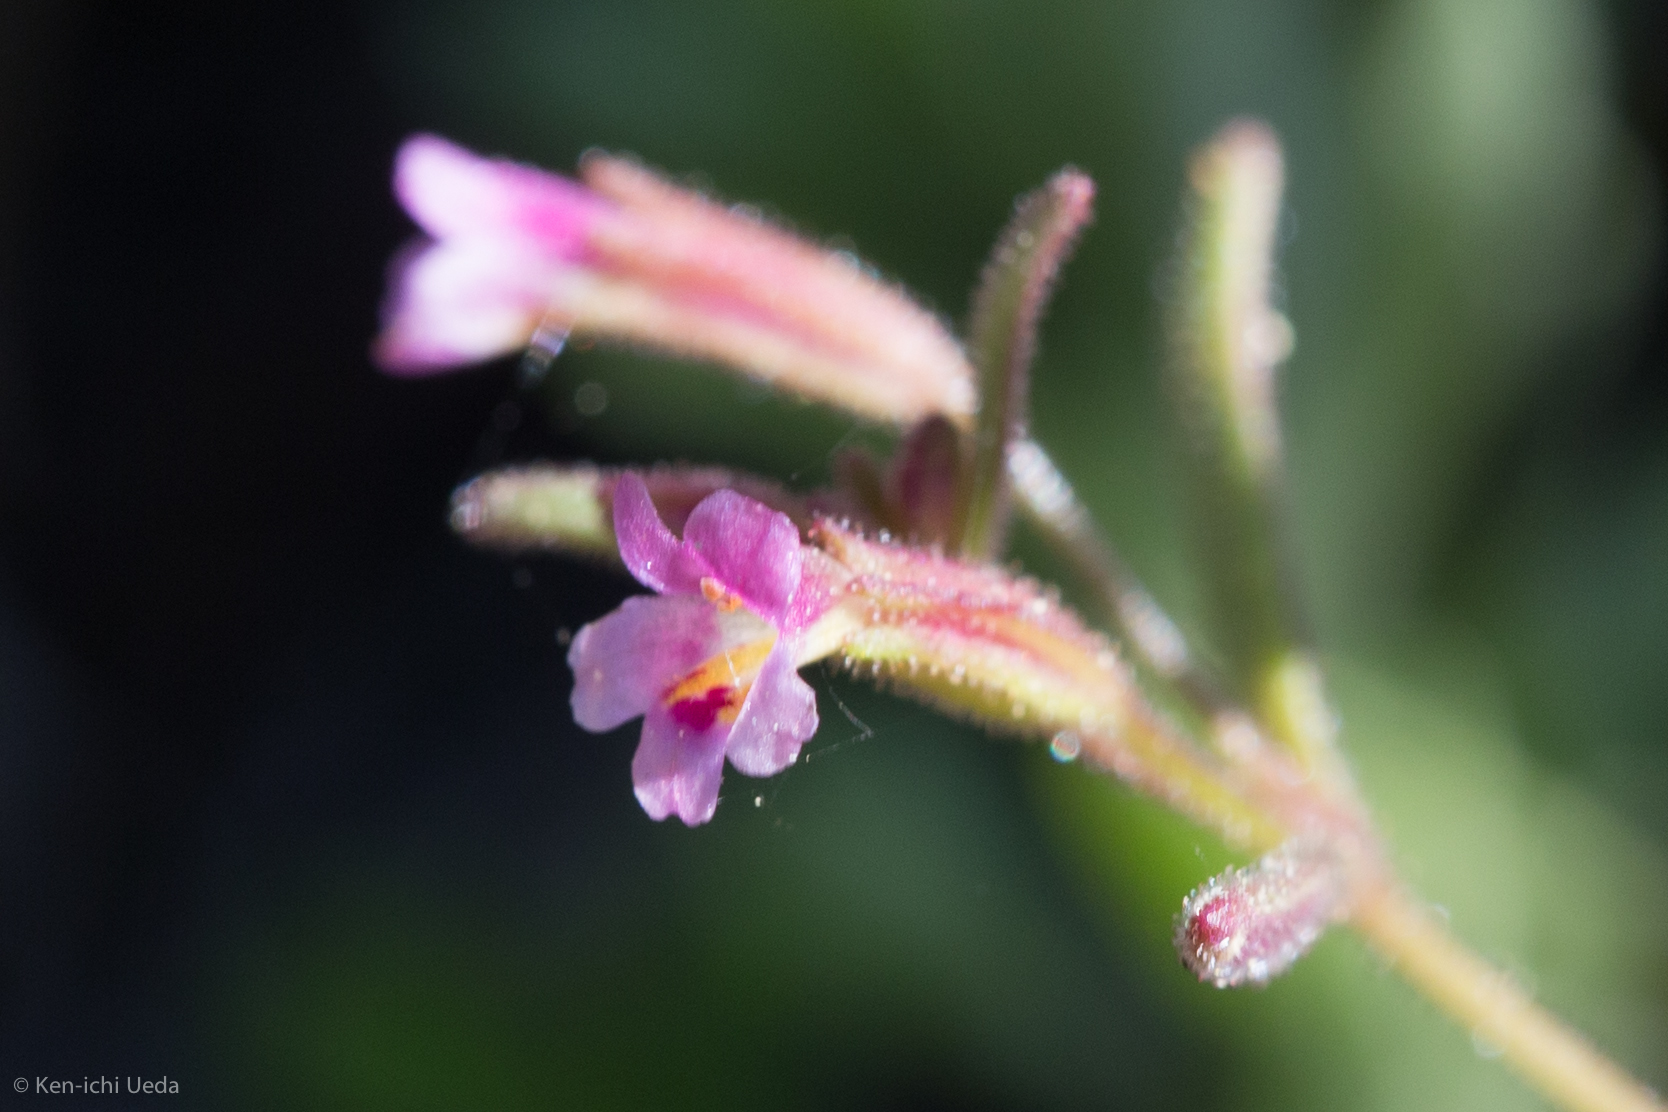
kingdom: Plantae
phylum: Tracheophyta
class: Magnoliopsida
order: Lamiales
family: Phrymaceae
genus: Erythranthe
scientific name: Erythranthe breweri
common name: Brewer's monkeyflower
